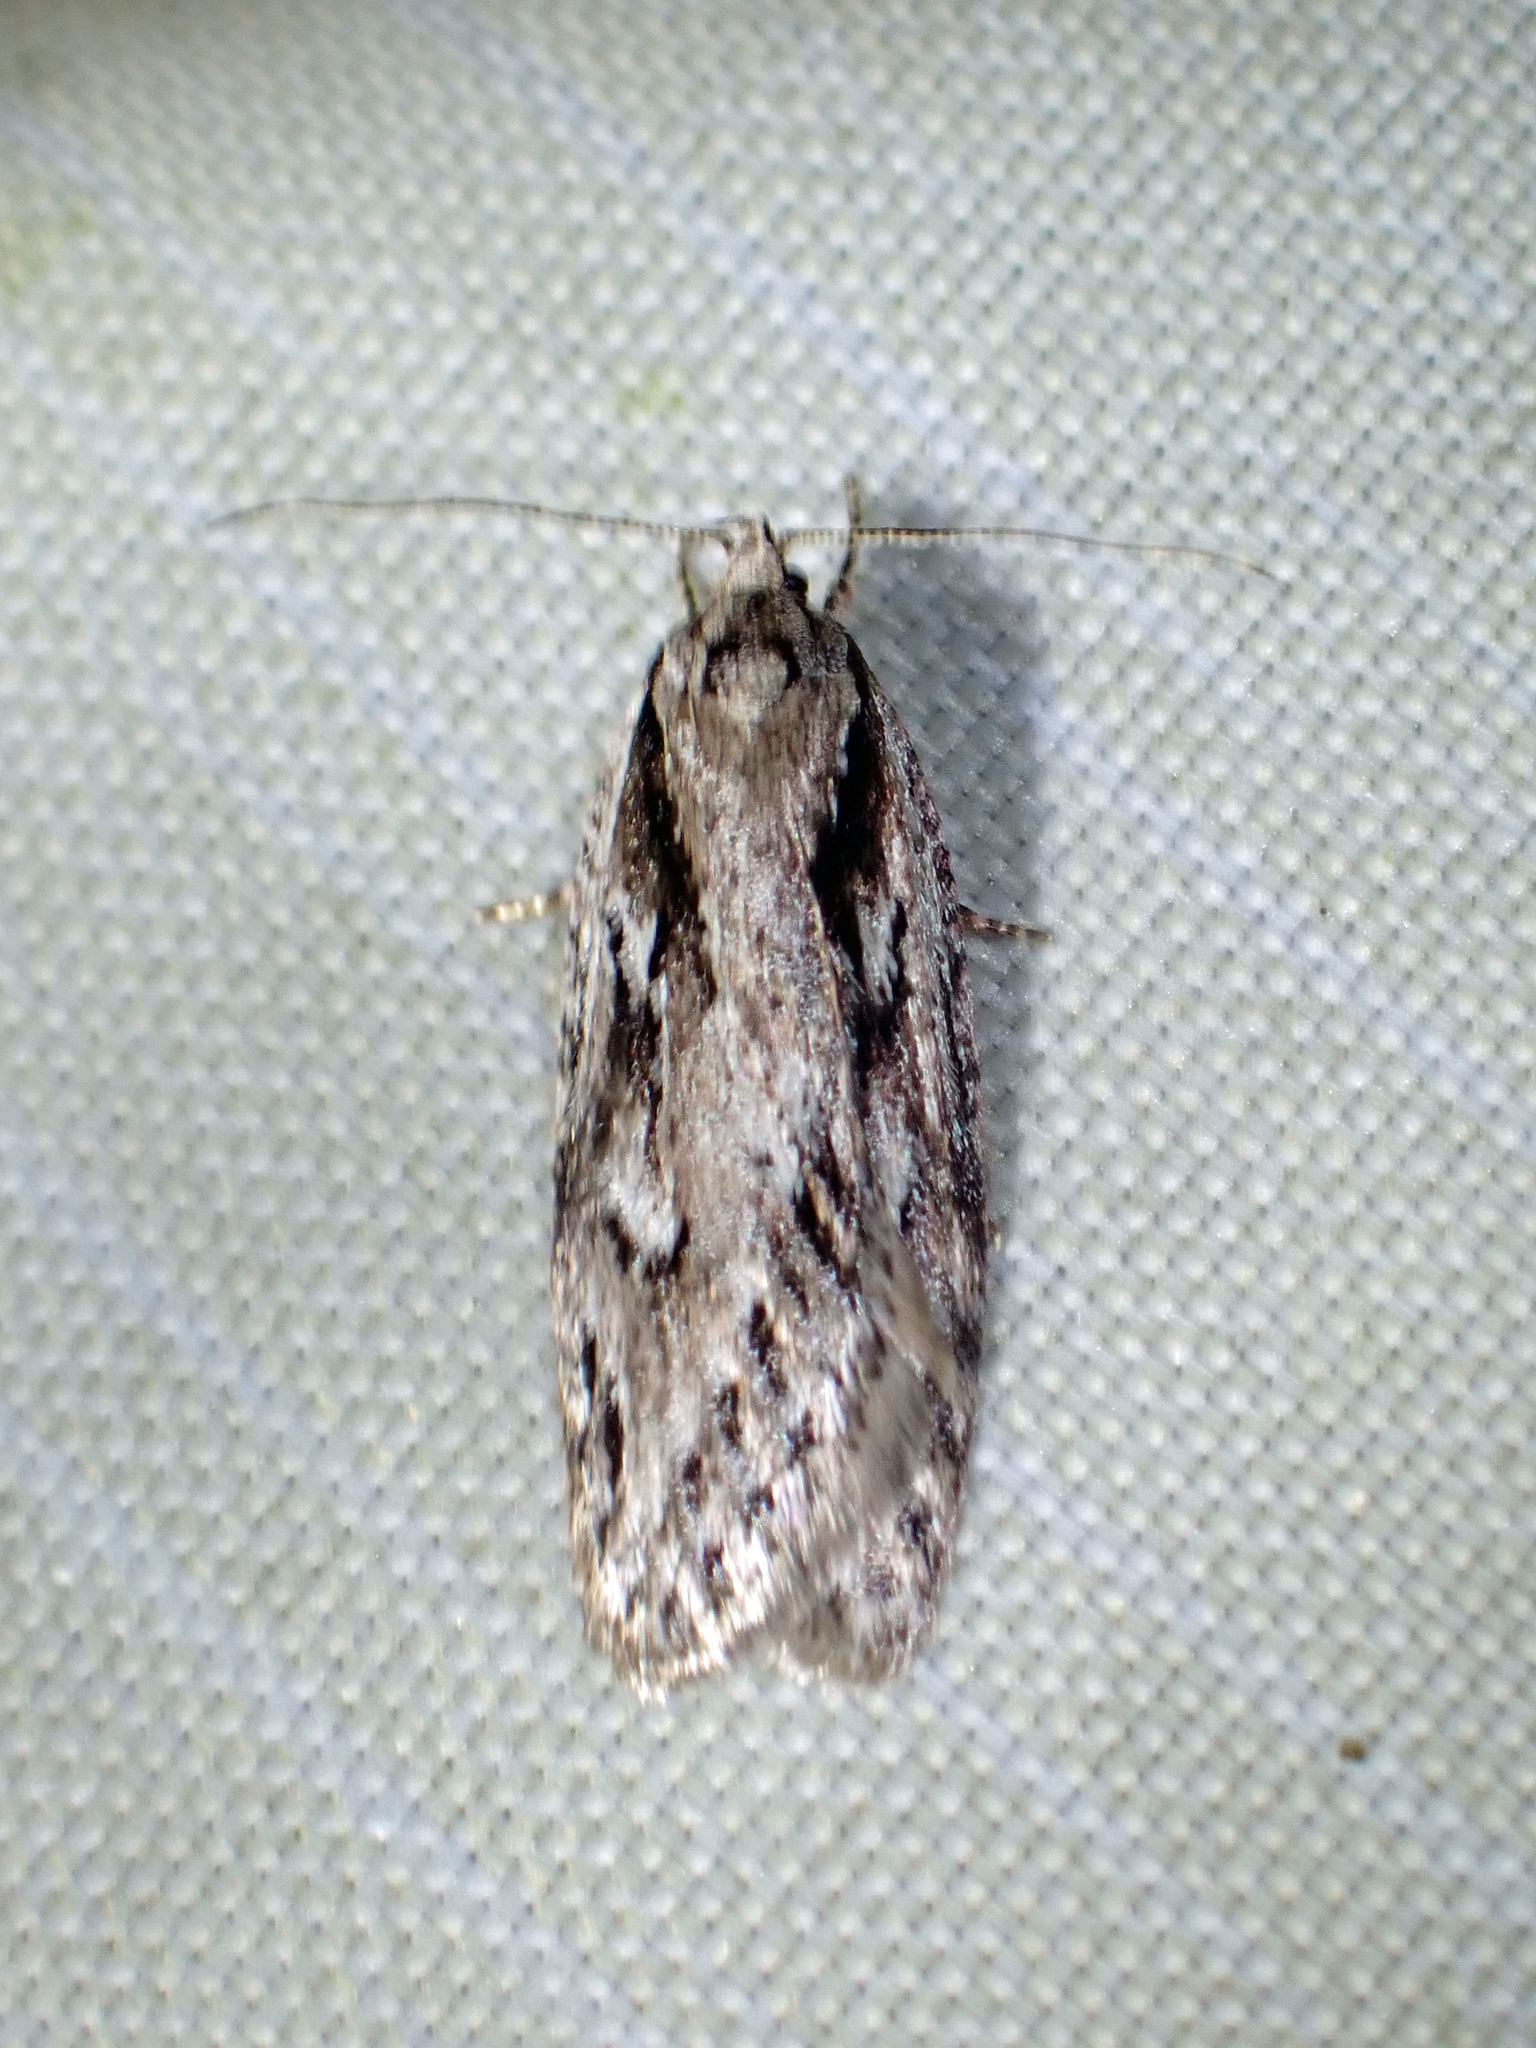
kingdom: Animalia
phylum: Arthropoda
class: Insecta
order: Lepidoptera
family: Depressariidae
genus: Semioscopis
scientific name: Semioscopis aurorella
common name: Aurora flatbody moth
